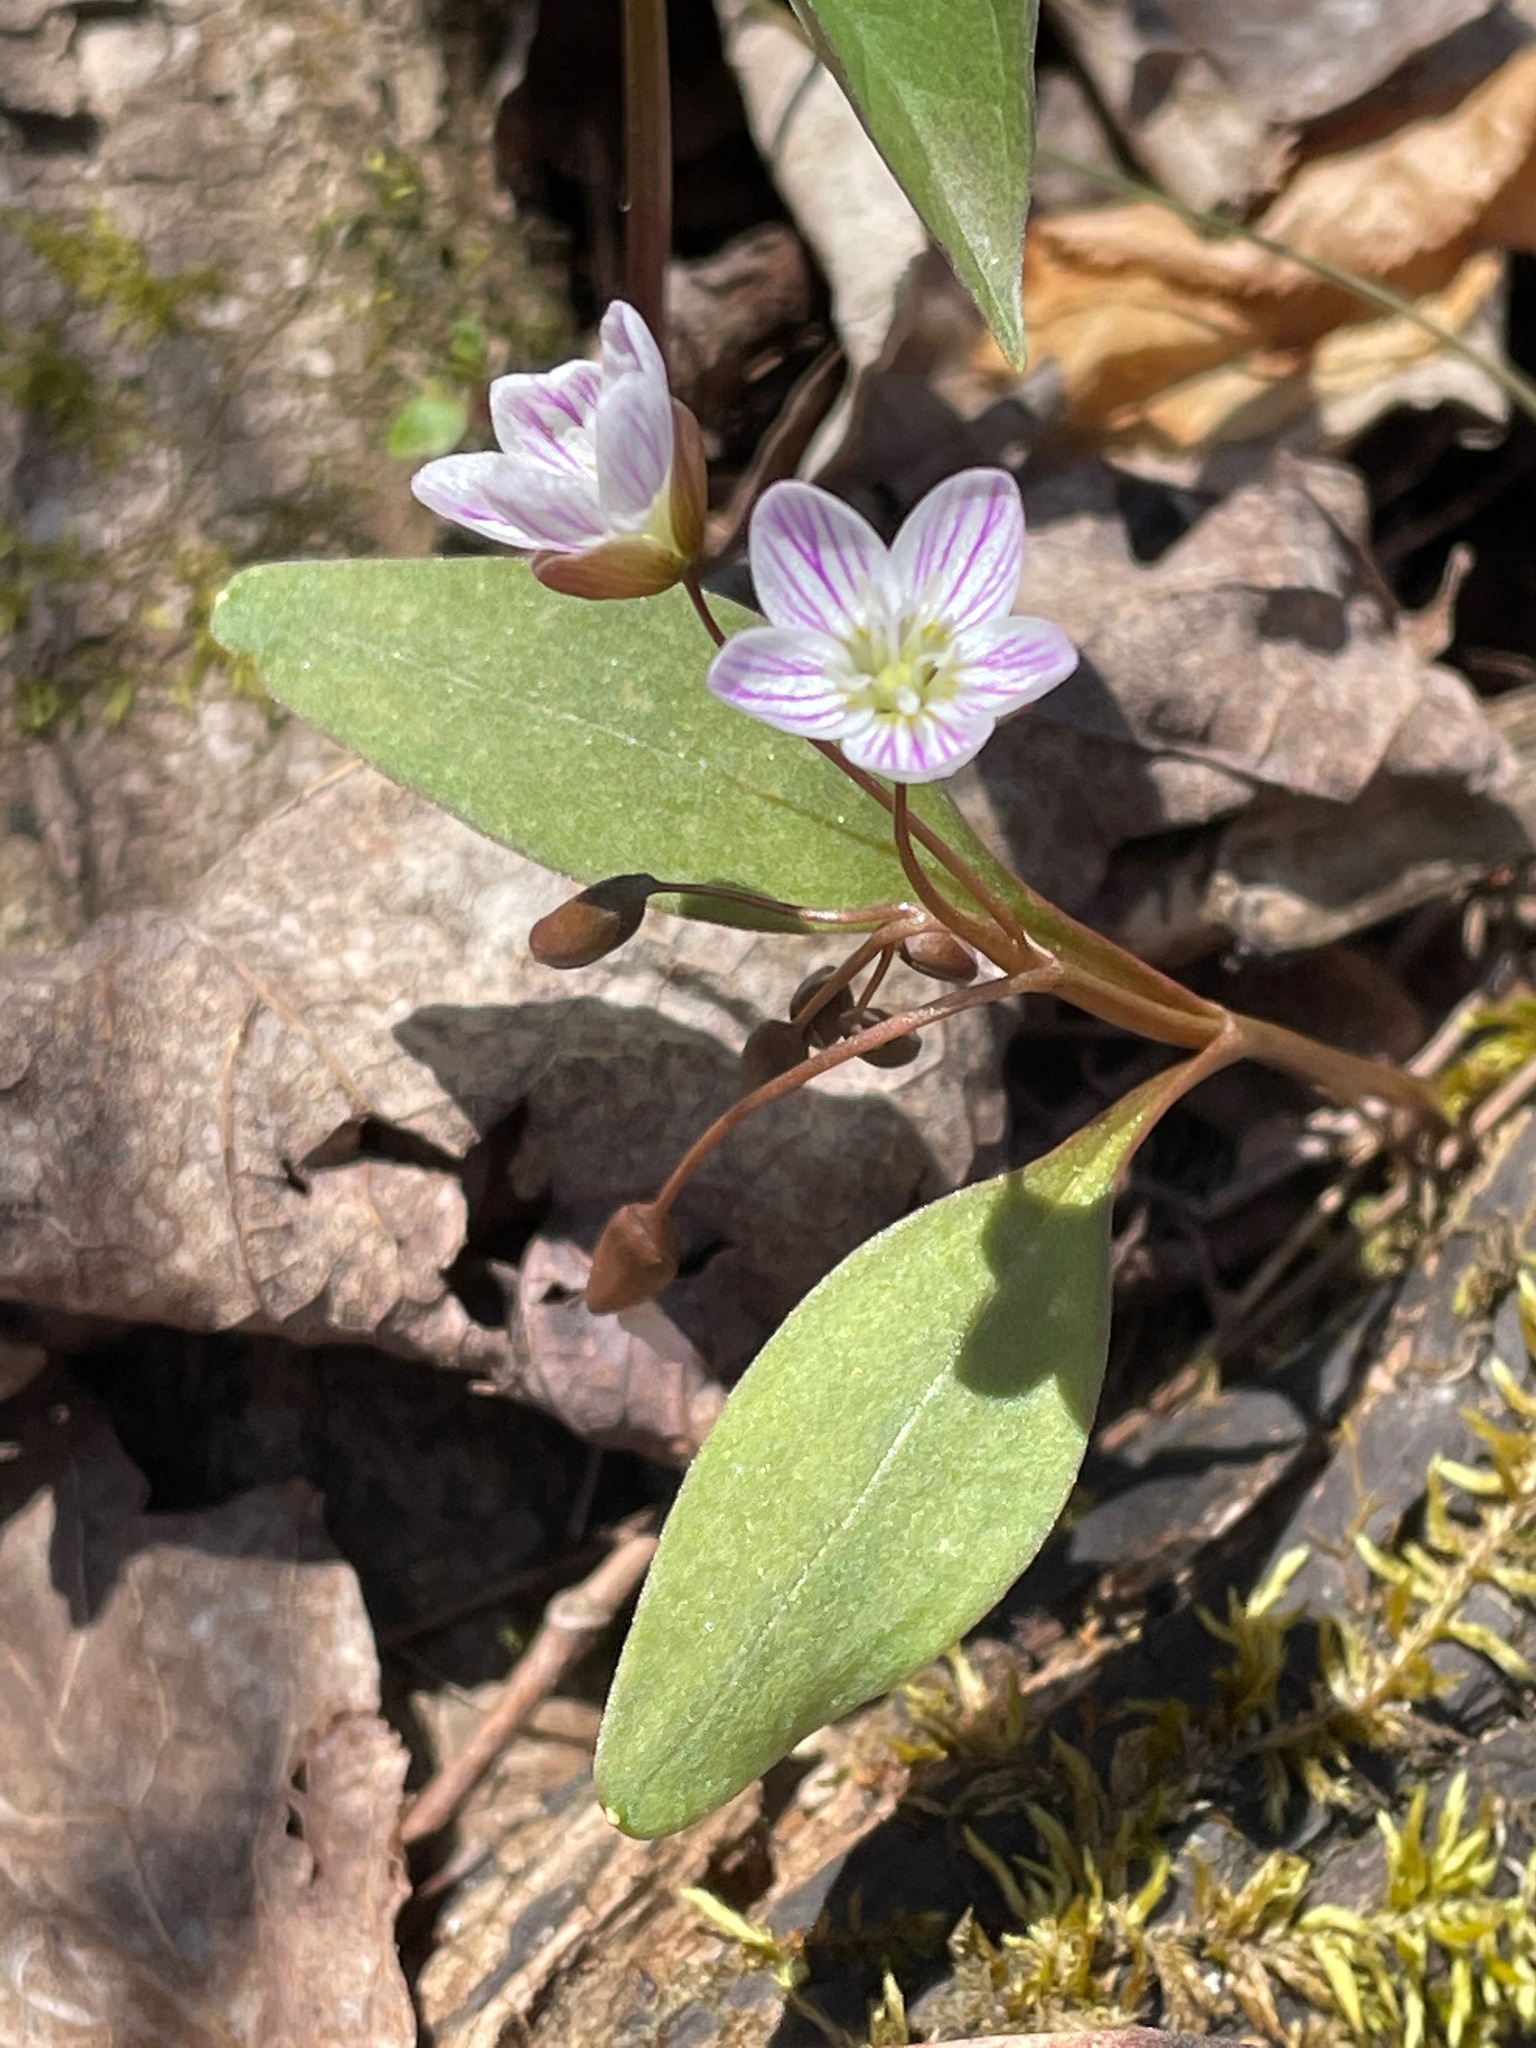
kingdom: Plantae
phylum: Tracheophyta
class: Magnoliopsida
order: Caryophyllales
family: Montiaceae
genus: Claytonia
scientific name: Claytonia caroliniana
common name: Carolina spring beauty
